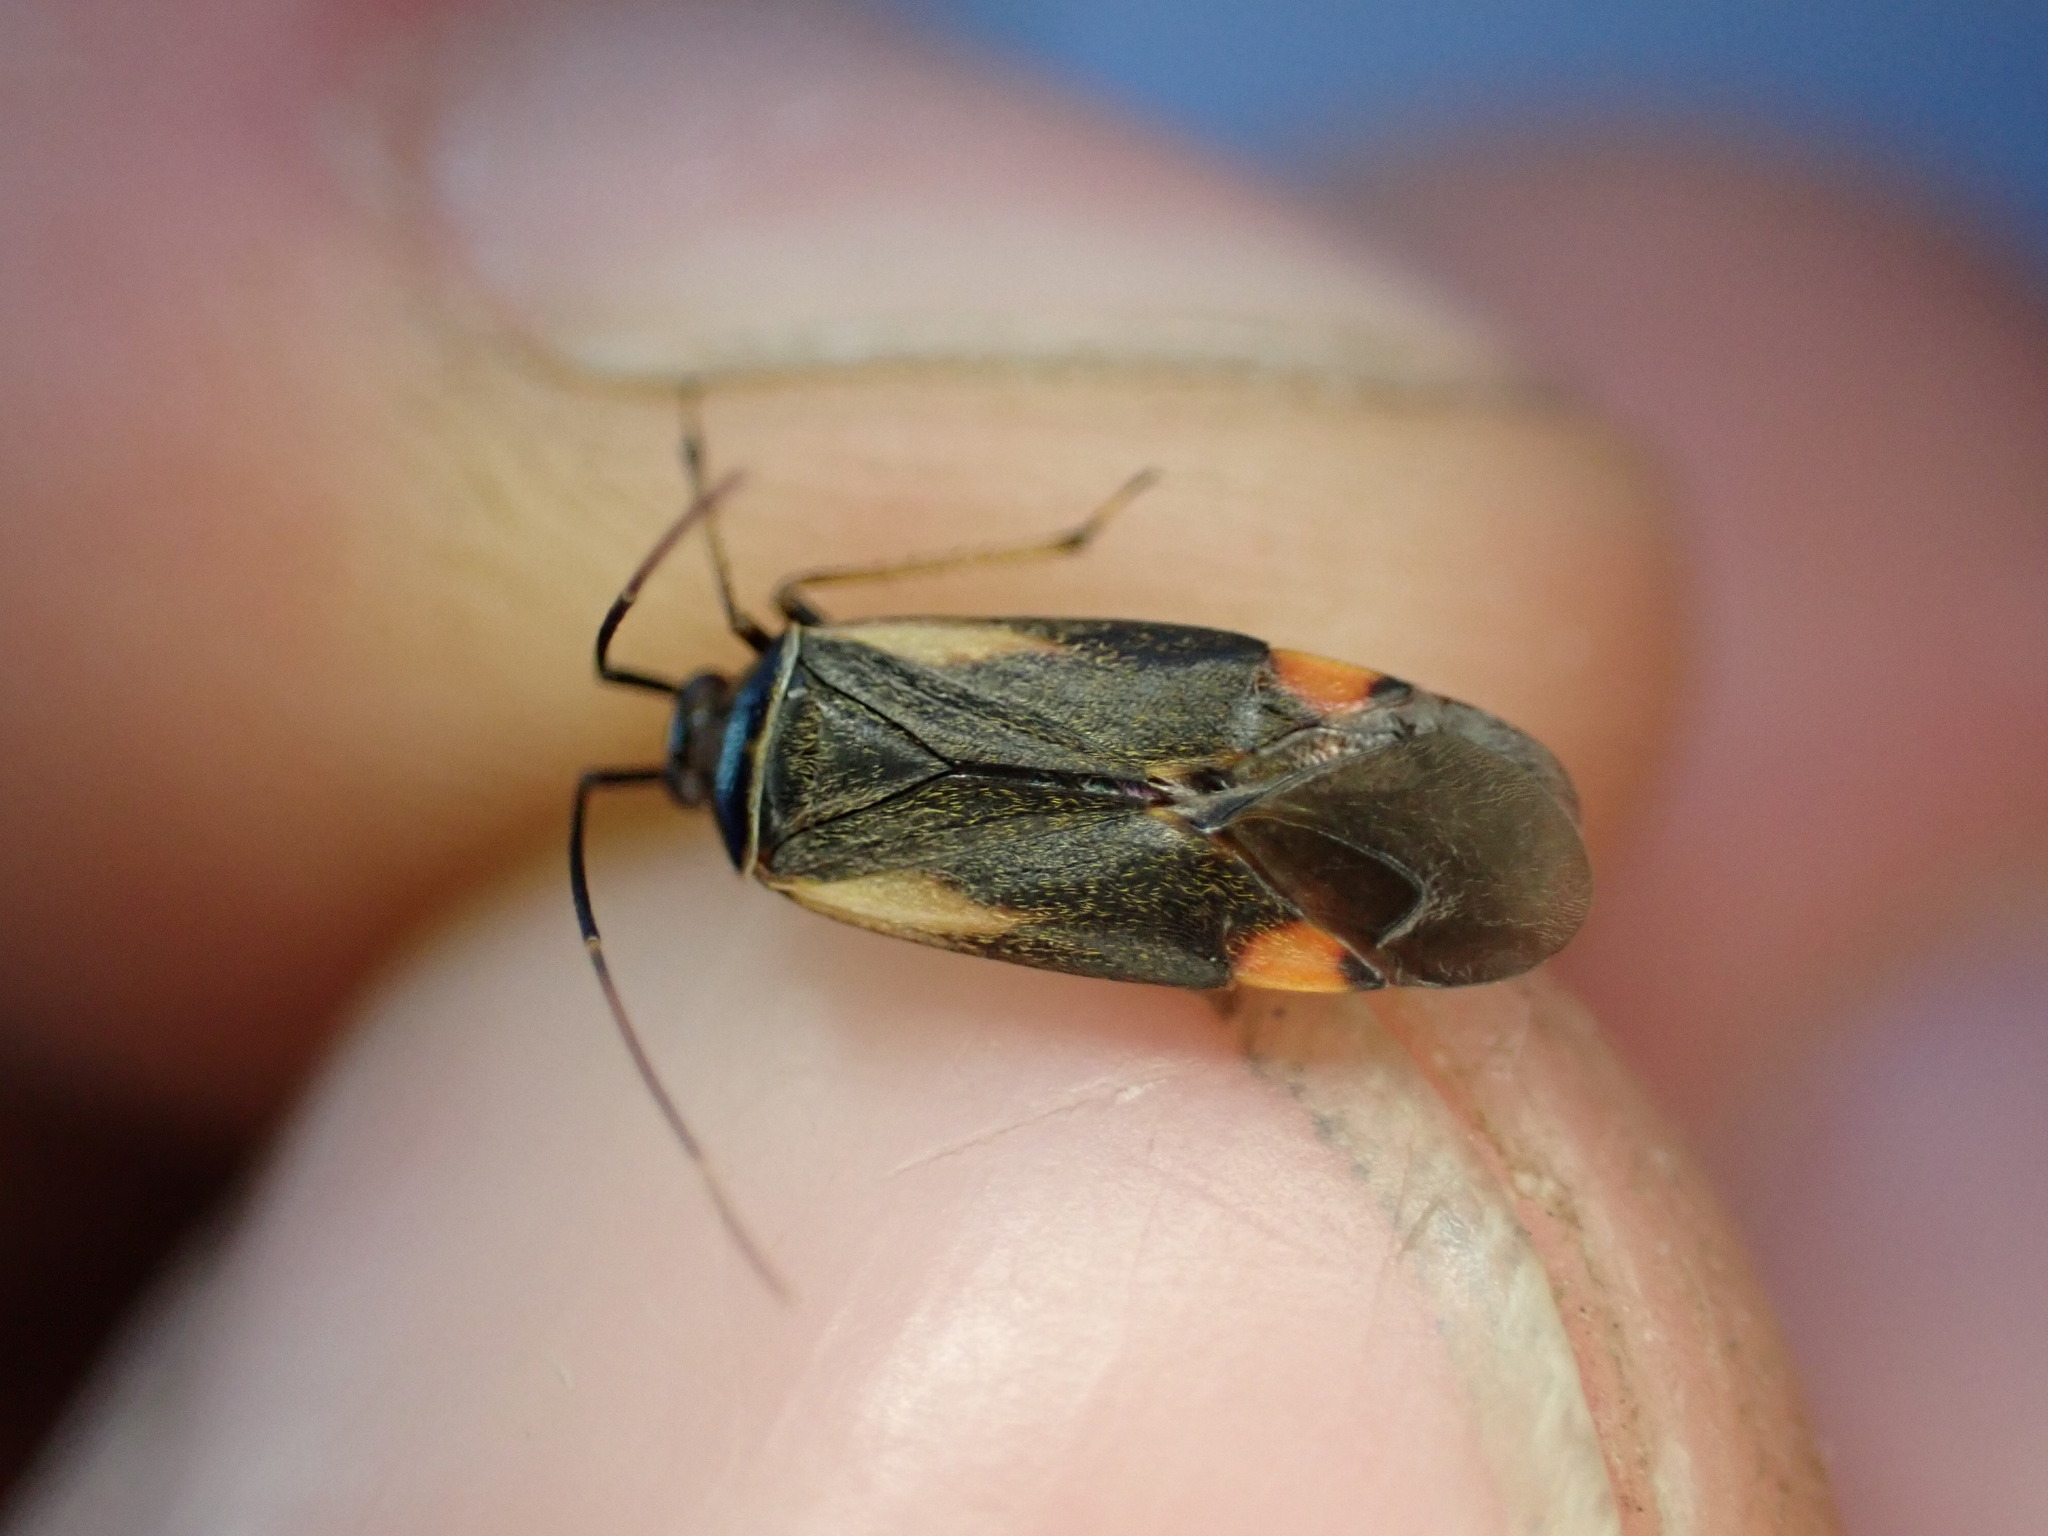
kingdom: Animalia
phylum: Arthropoda
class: Insecta
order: Hemiptera
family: Miridae
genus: Adelphocoris
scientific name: Adelphocoris seticornis
